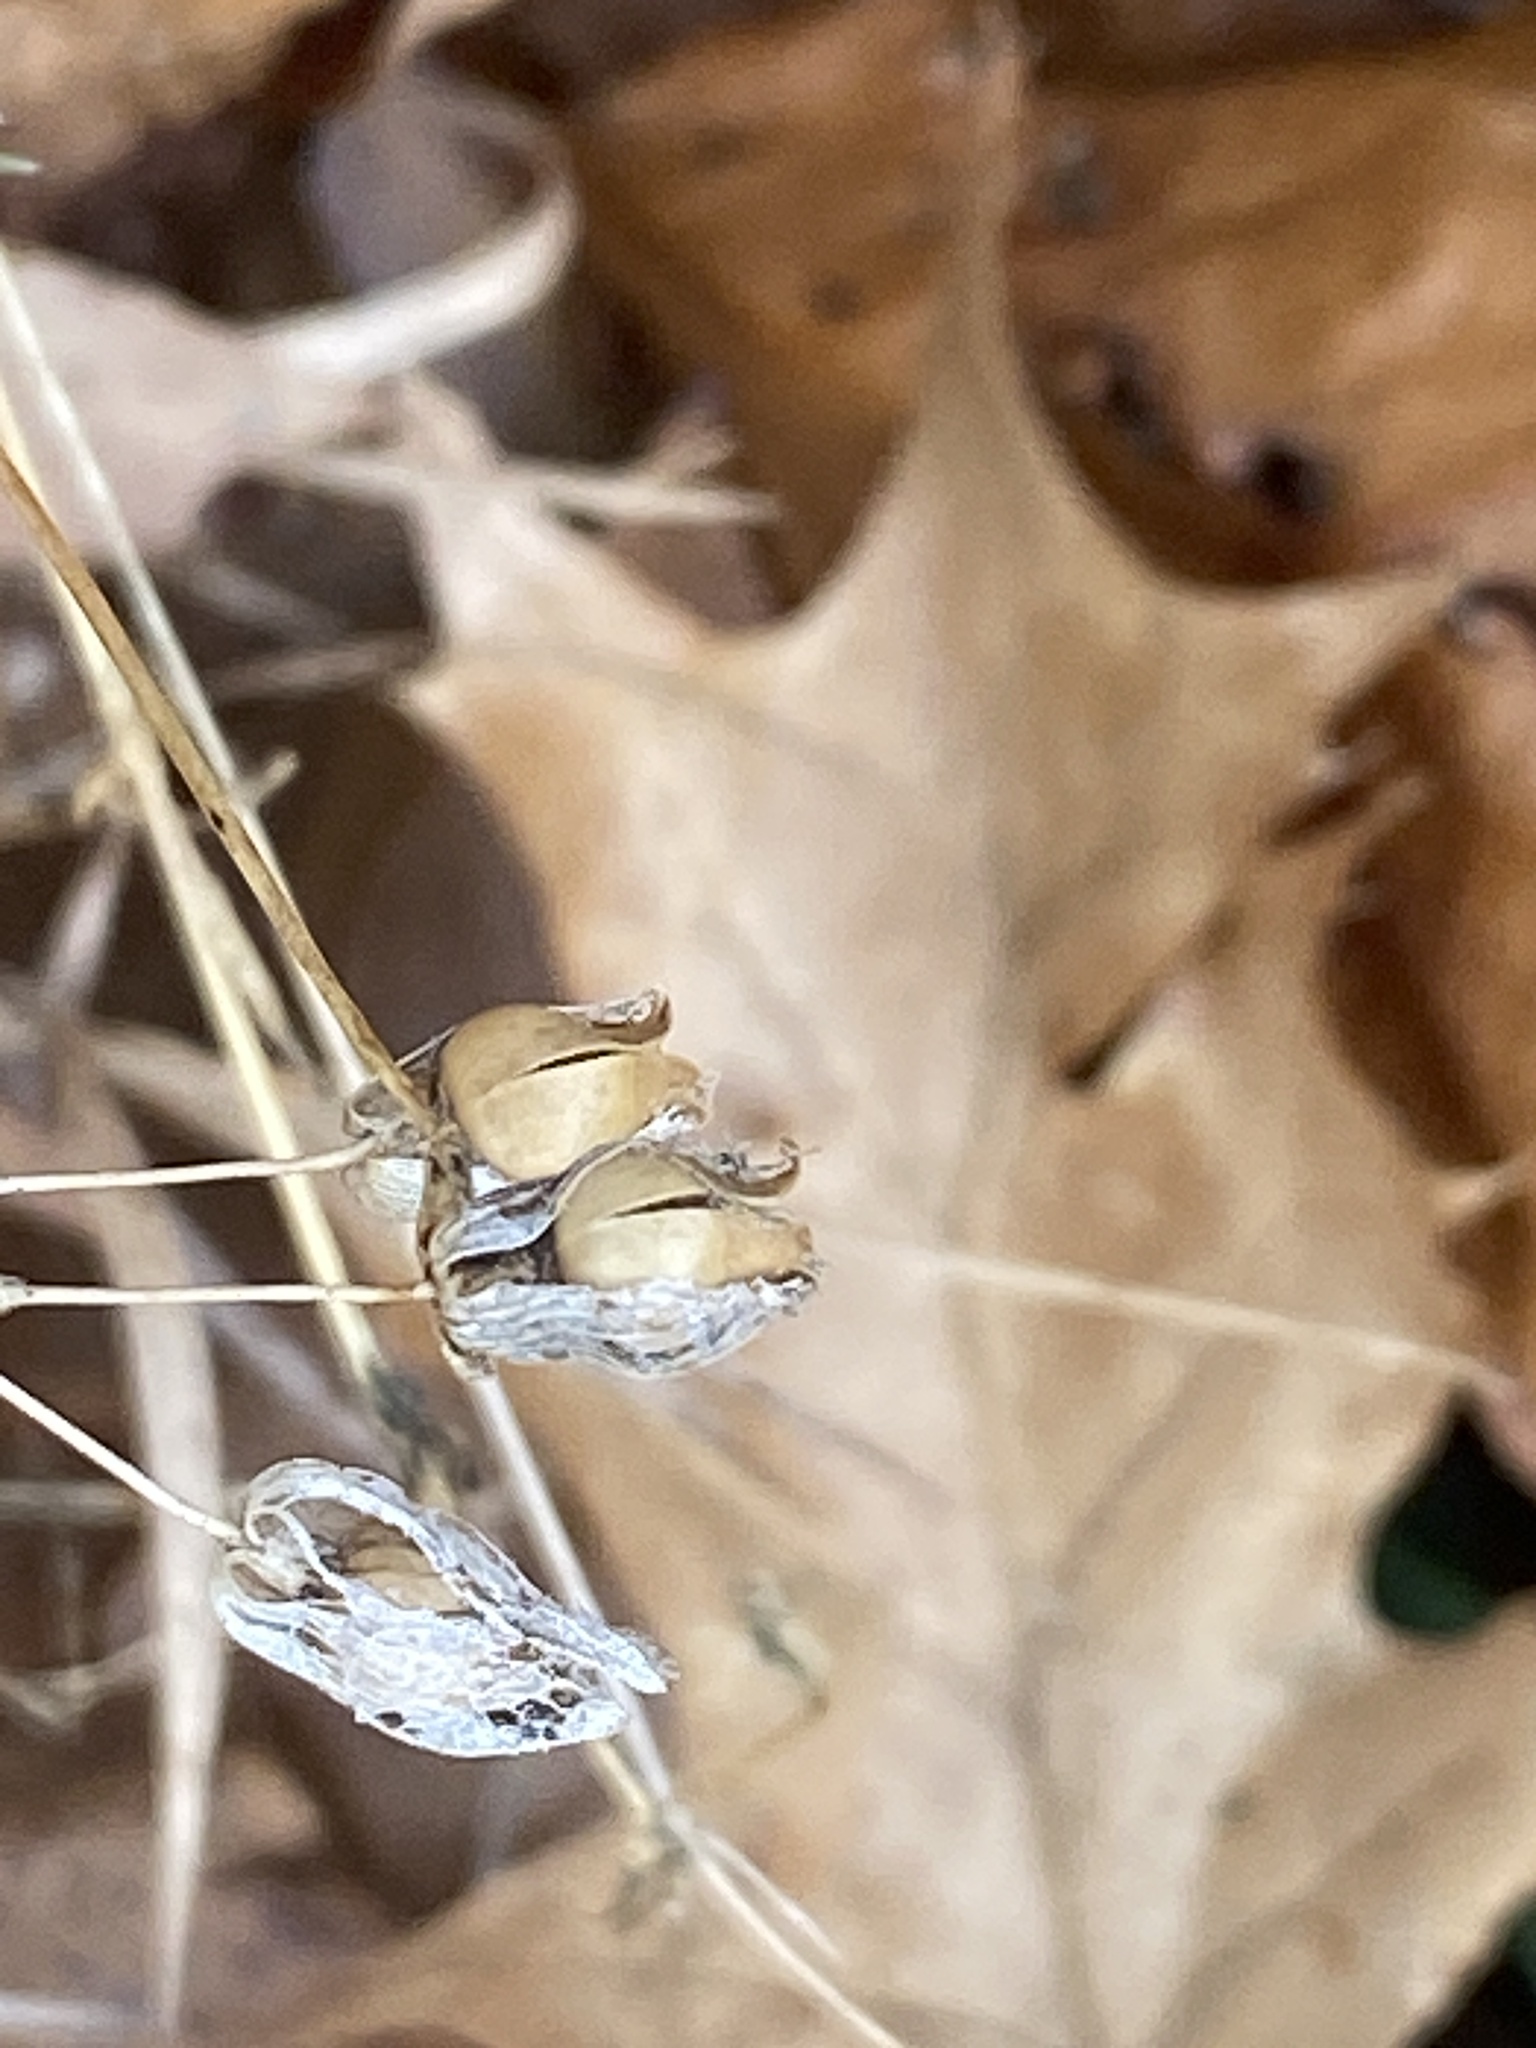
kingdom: Plantae
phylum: Tracheophyta
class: Magnoliopsida
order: Caryophyllales
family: Caryophyllaceae
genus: Silene
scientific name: Silene vulgaris
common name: Bladder campion
